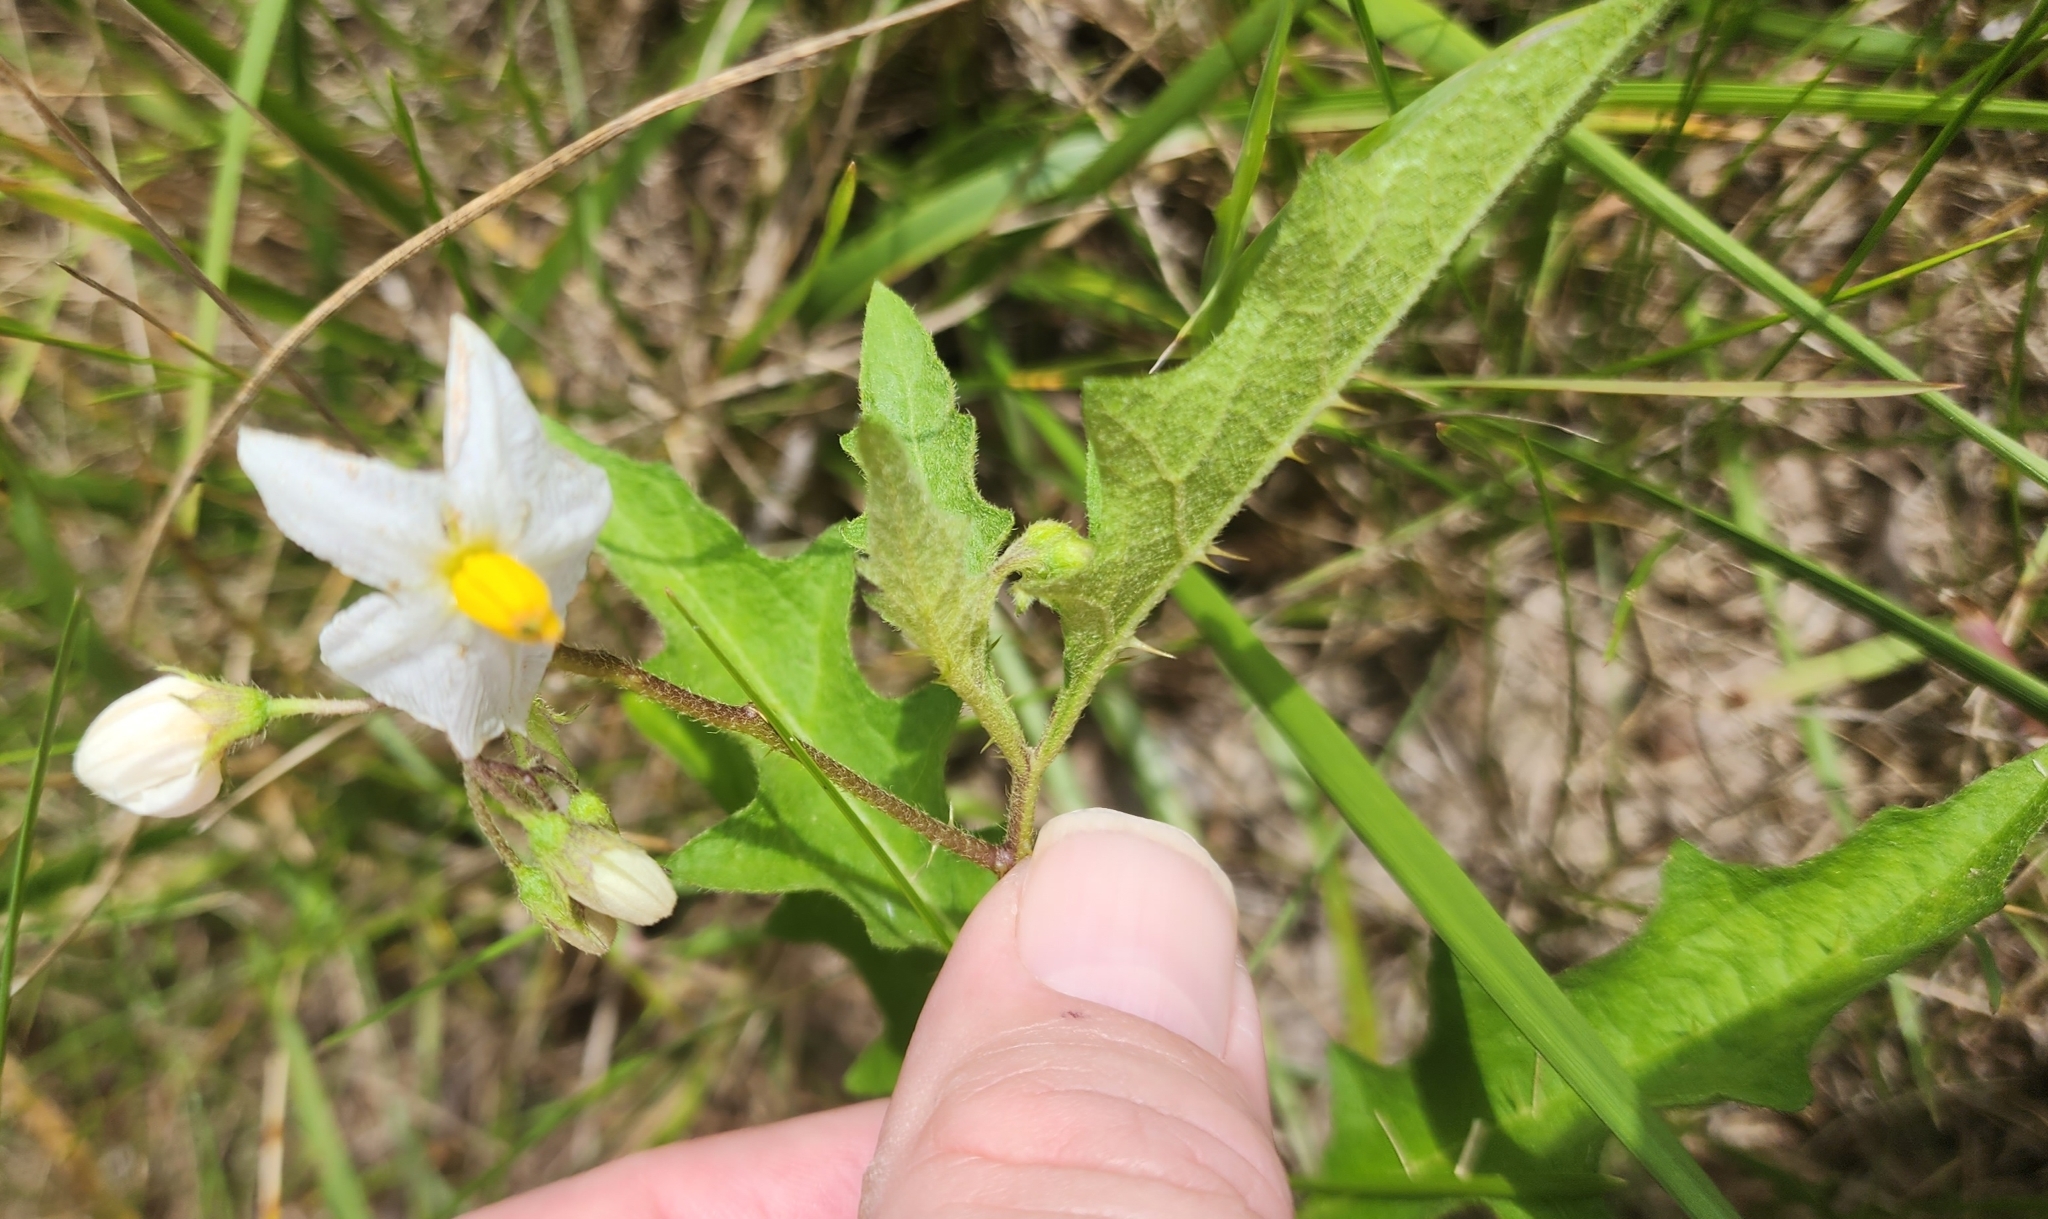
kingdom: Plantae
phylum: Tracheophyta
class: Magnoliopsida
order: Solanales
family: Solanaceae
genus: Solanum
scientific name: Solanum carolinense
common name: Horse-nettle
